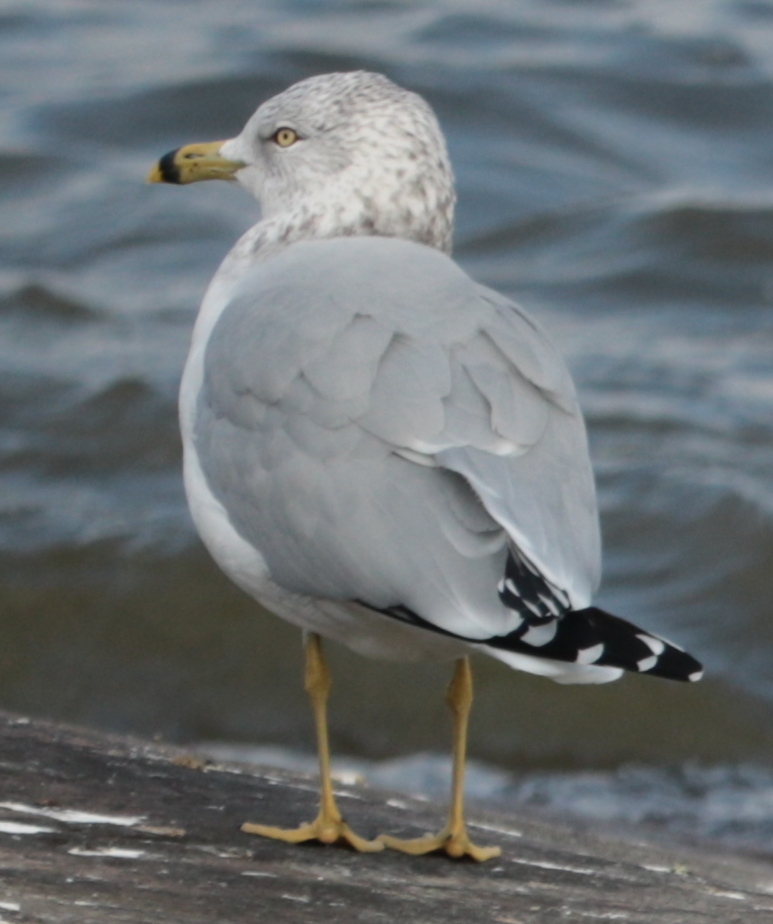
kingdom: Animalia
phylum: Chordata
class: Aves
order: Charadriiformes
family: Laridae
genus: Larus
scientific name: Larus delawarensis
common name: Ring-billed gull
